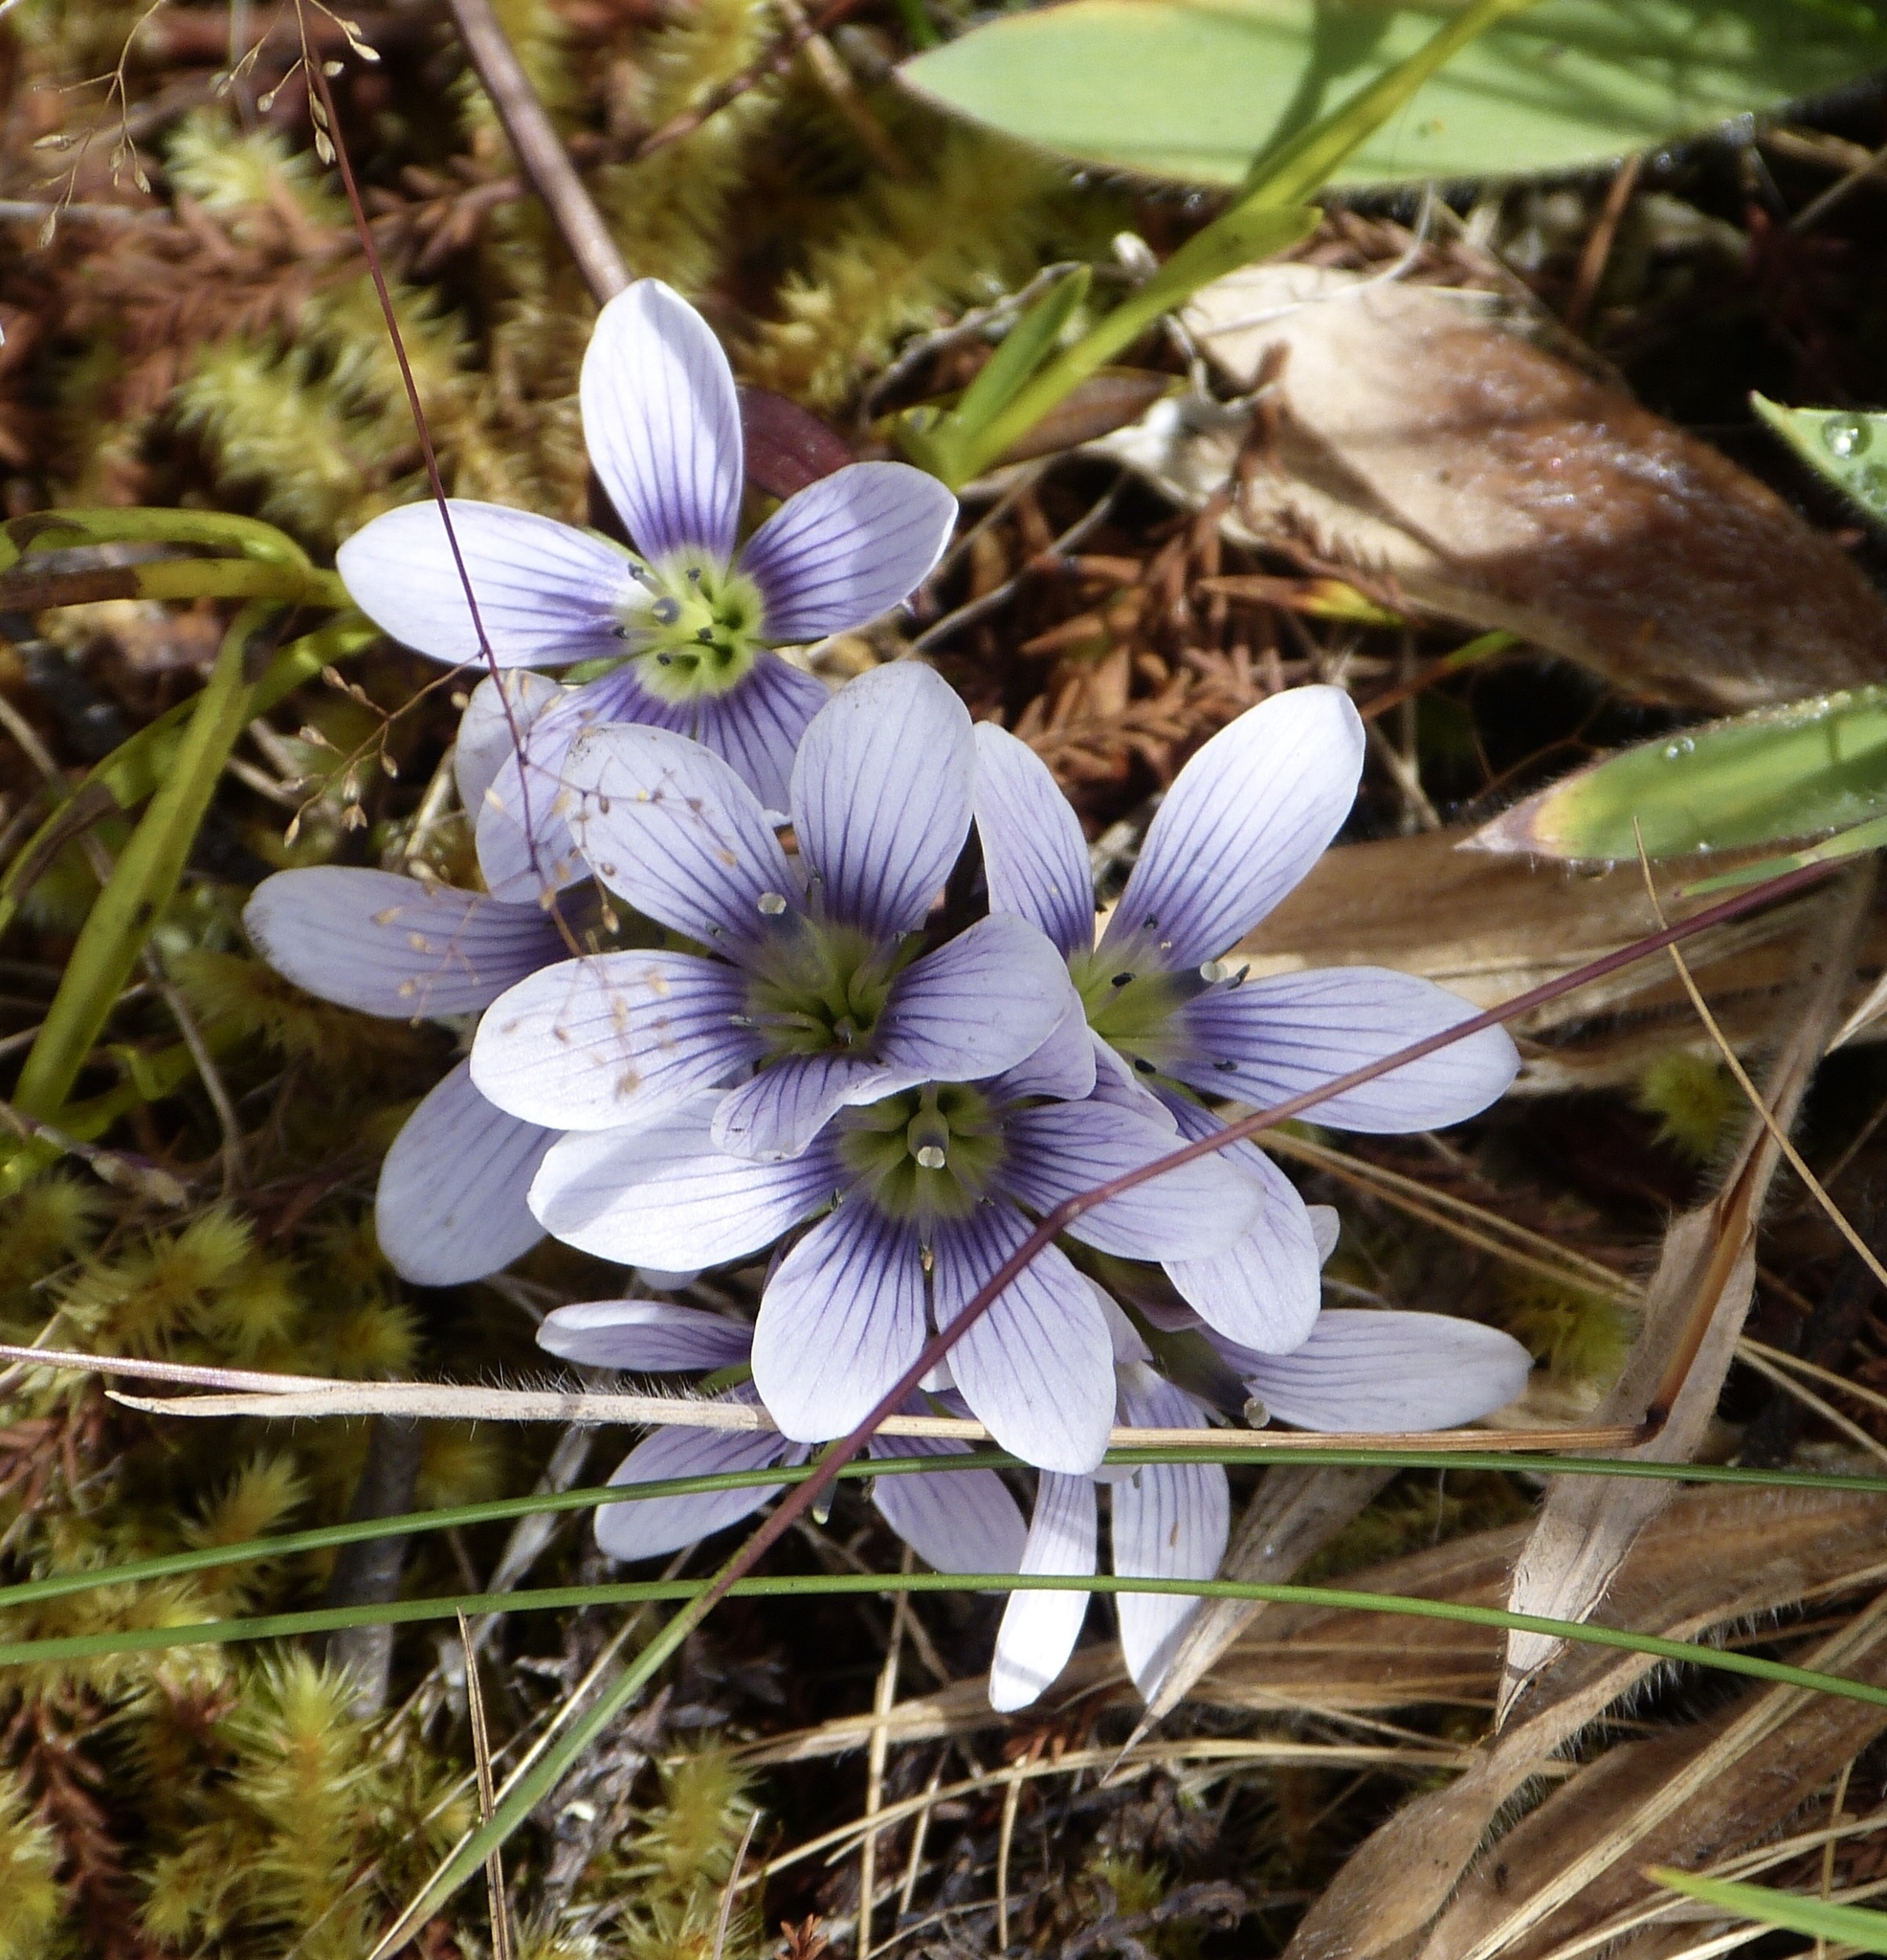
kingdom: Plantae
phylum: Tracheophyta
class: Magnoliopsida
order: Gentianales
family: Gentianaceae
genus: Gentianella
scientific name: Gentianella corymbosa
